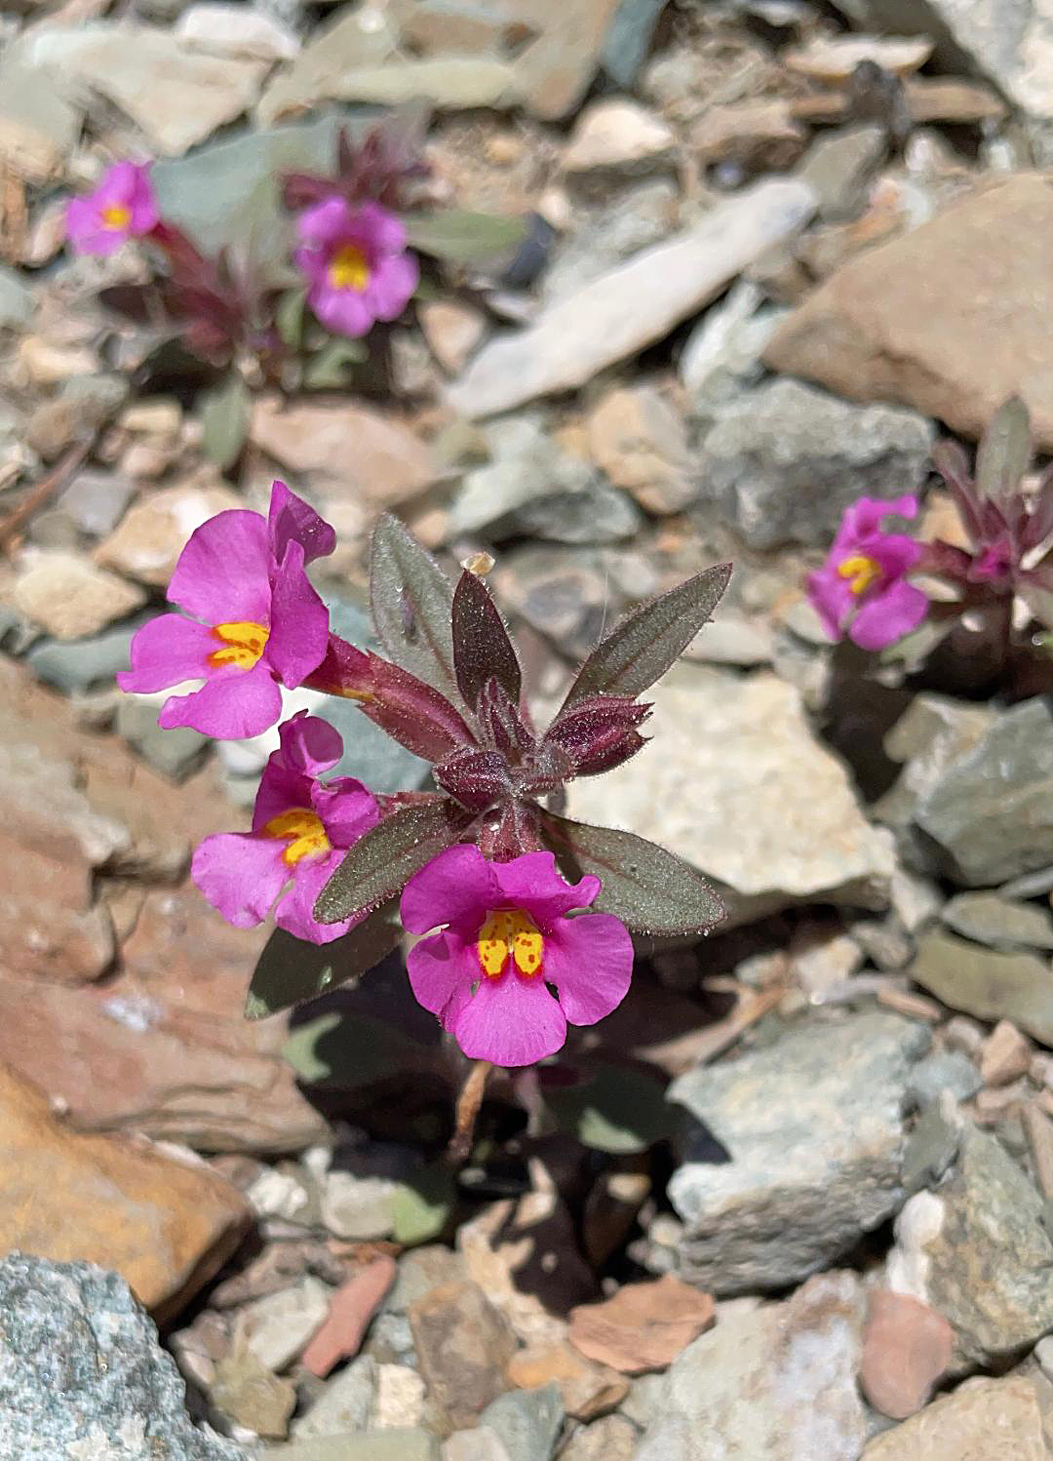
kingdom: Plantae
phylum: Tracheophyta
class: Magnoliopsida
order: Lamiales
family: Phrymaceae
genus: Diplacus
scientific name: Diplacus parryi
